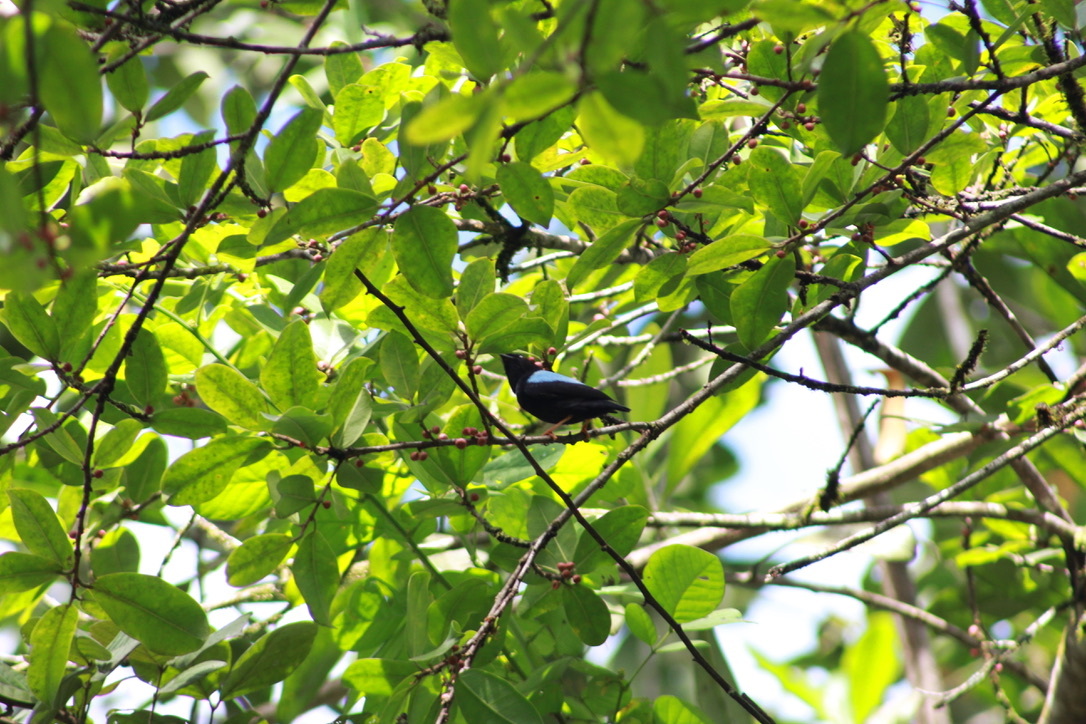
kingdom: Animalia
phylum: Chordata
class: Aves
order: Passeriformes
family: Pipridae
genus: Chiroxiphia
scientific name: Chiroxiphia pareola
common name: Blue-backed manakin
